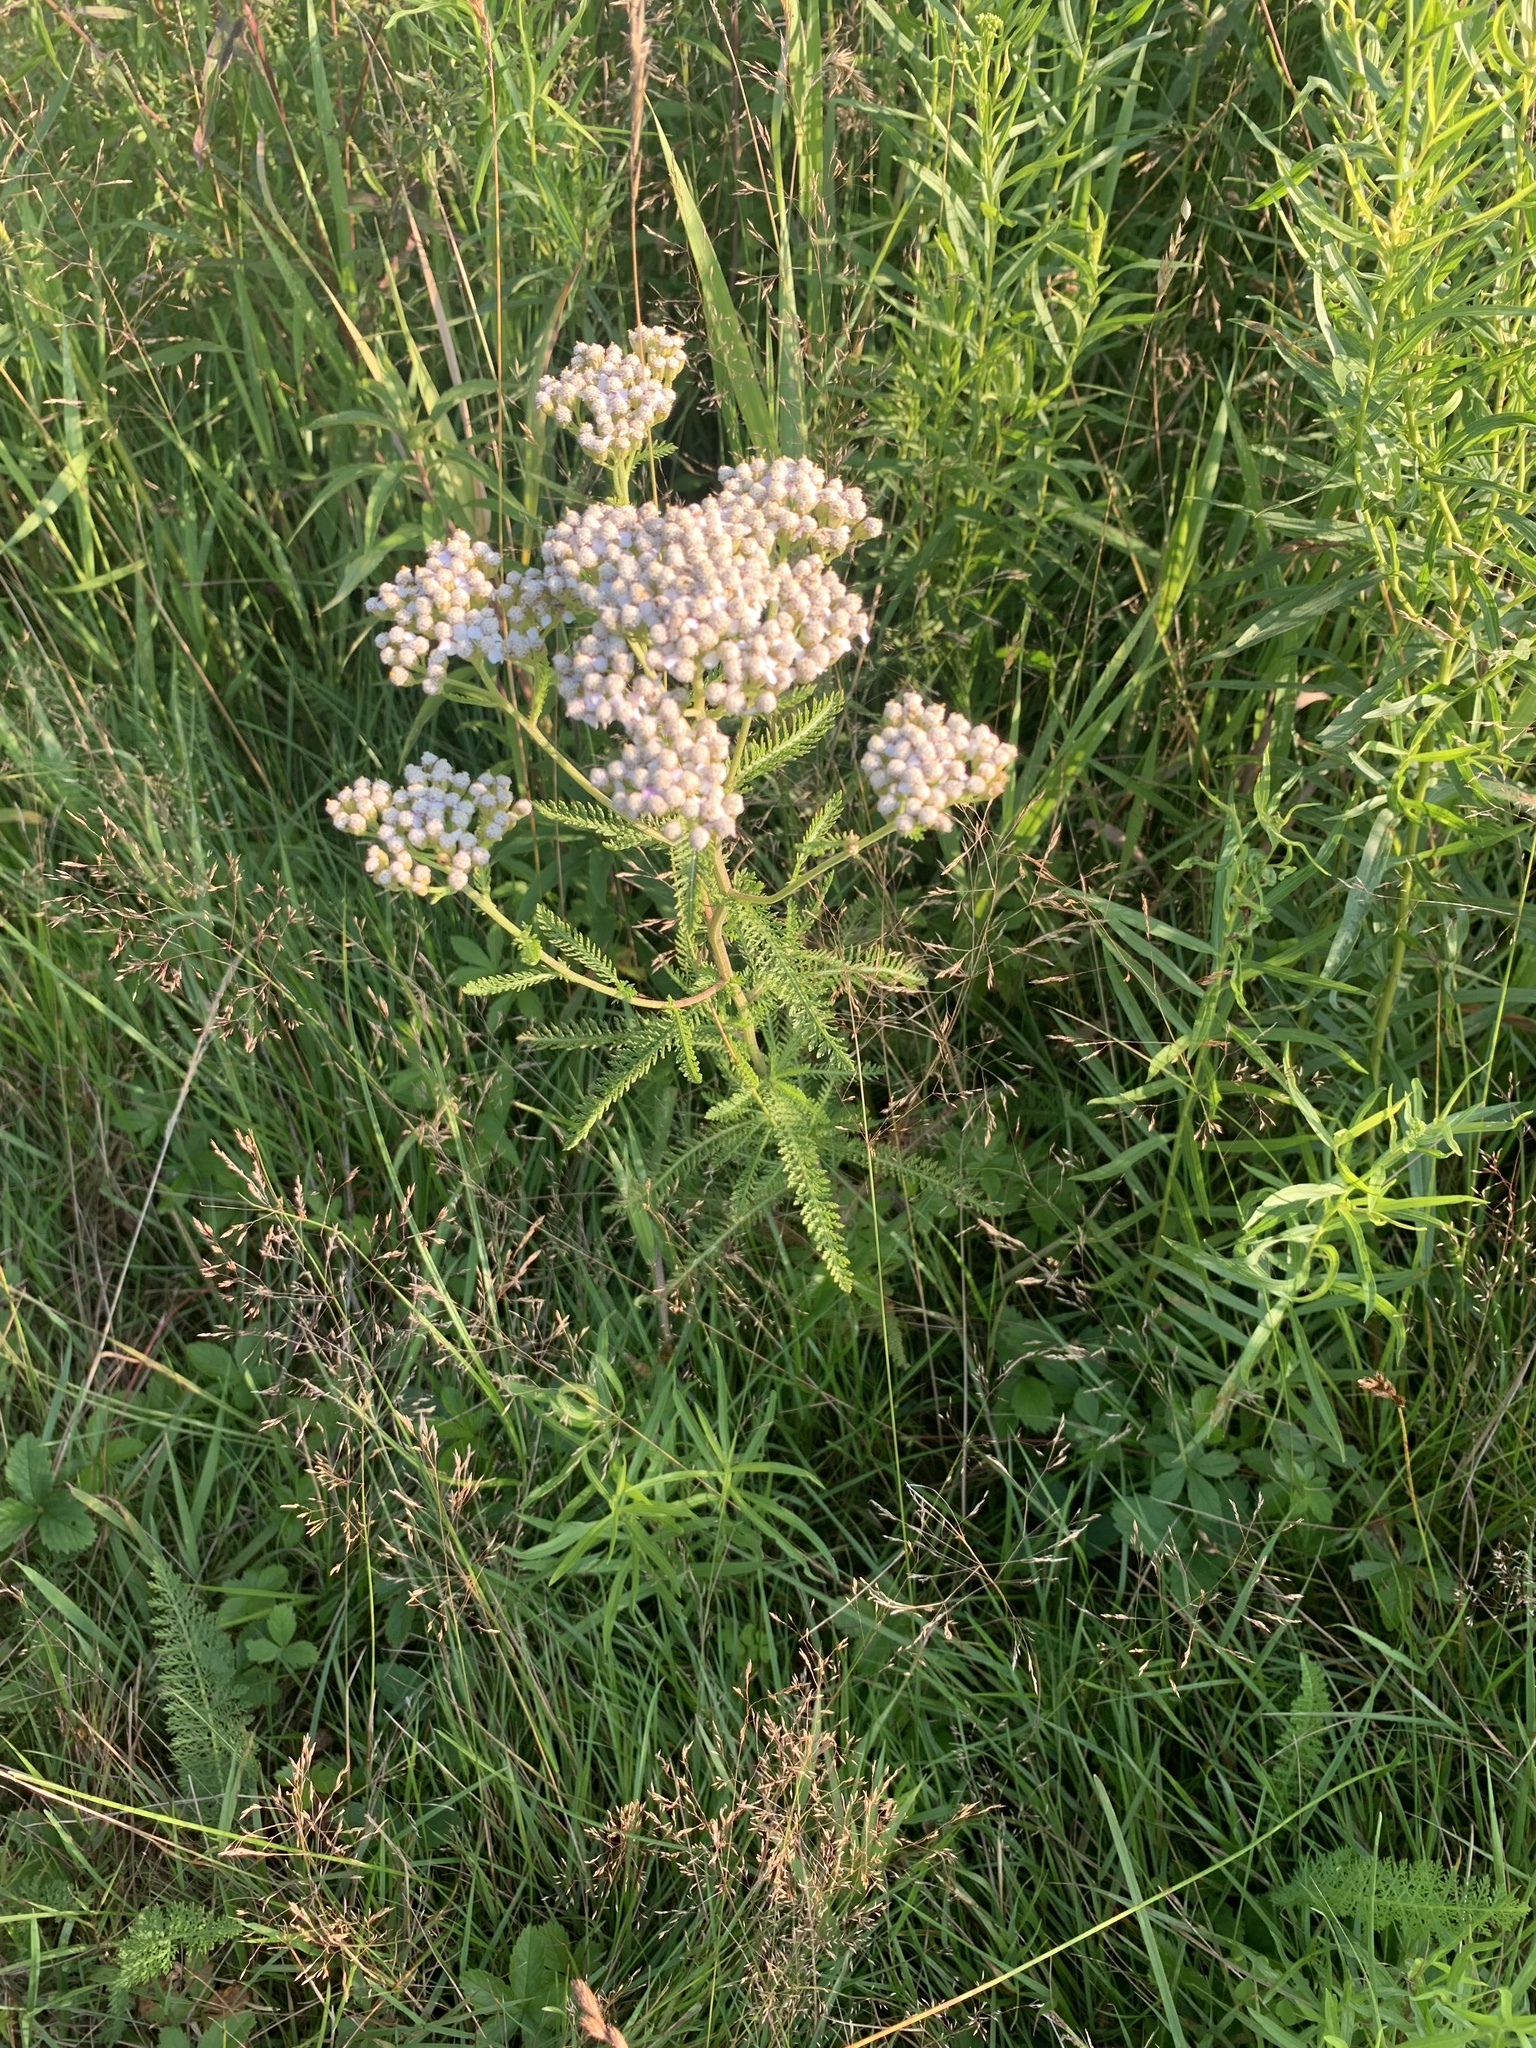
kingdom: Plantae
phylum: Tracheophyta
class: Magnoliopsida
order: Asterales
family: Asteraceae
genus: Achillea
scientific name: Achillea millefolium
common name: Yarrow
